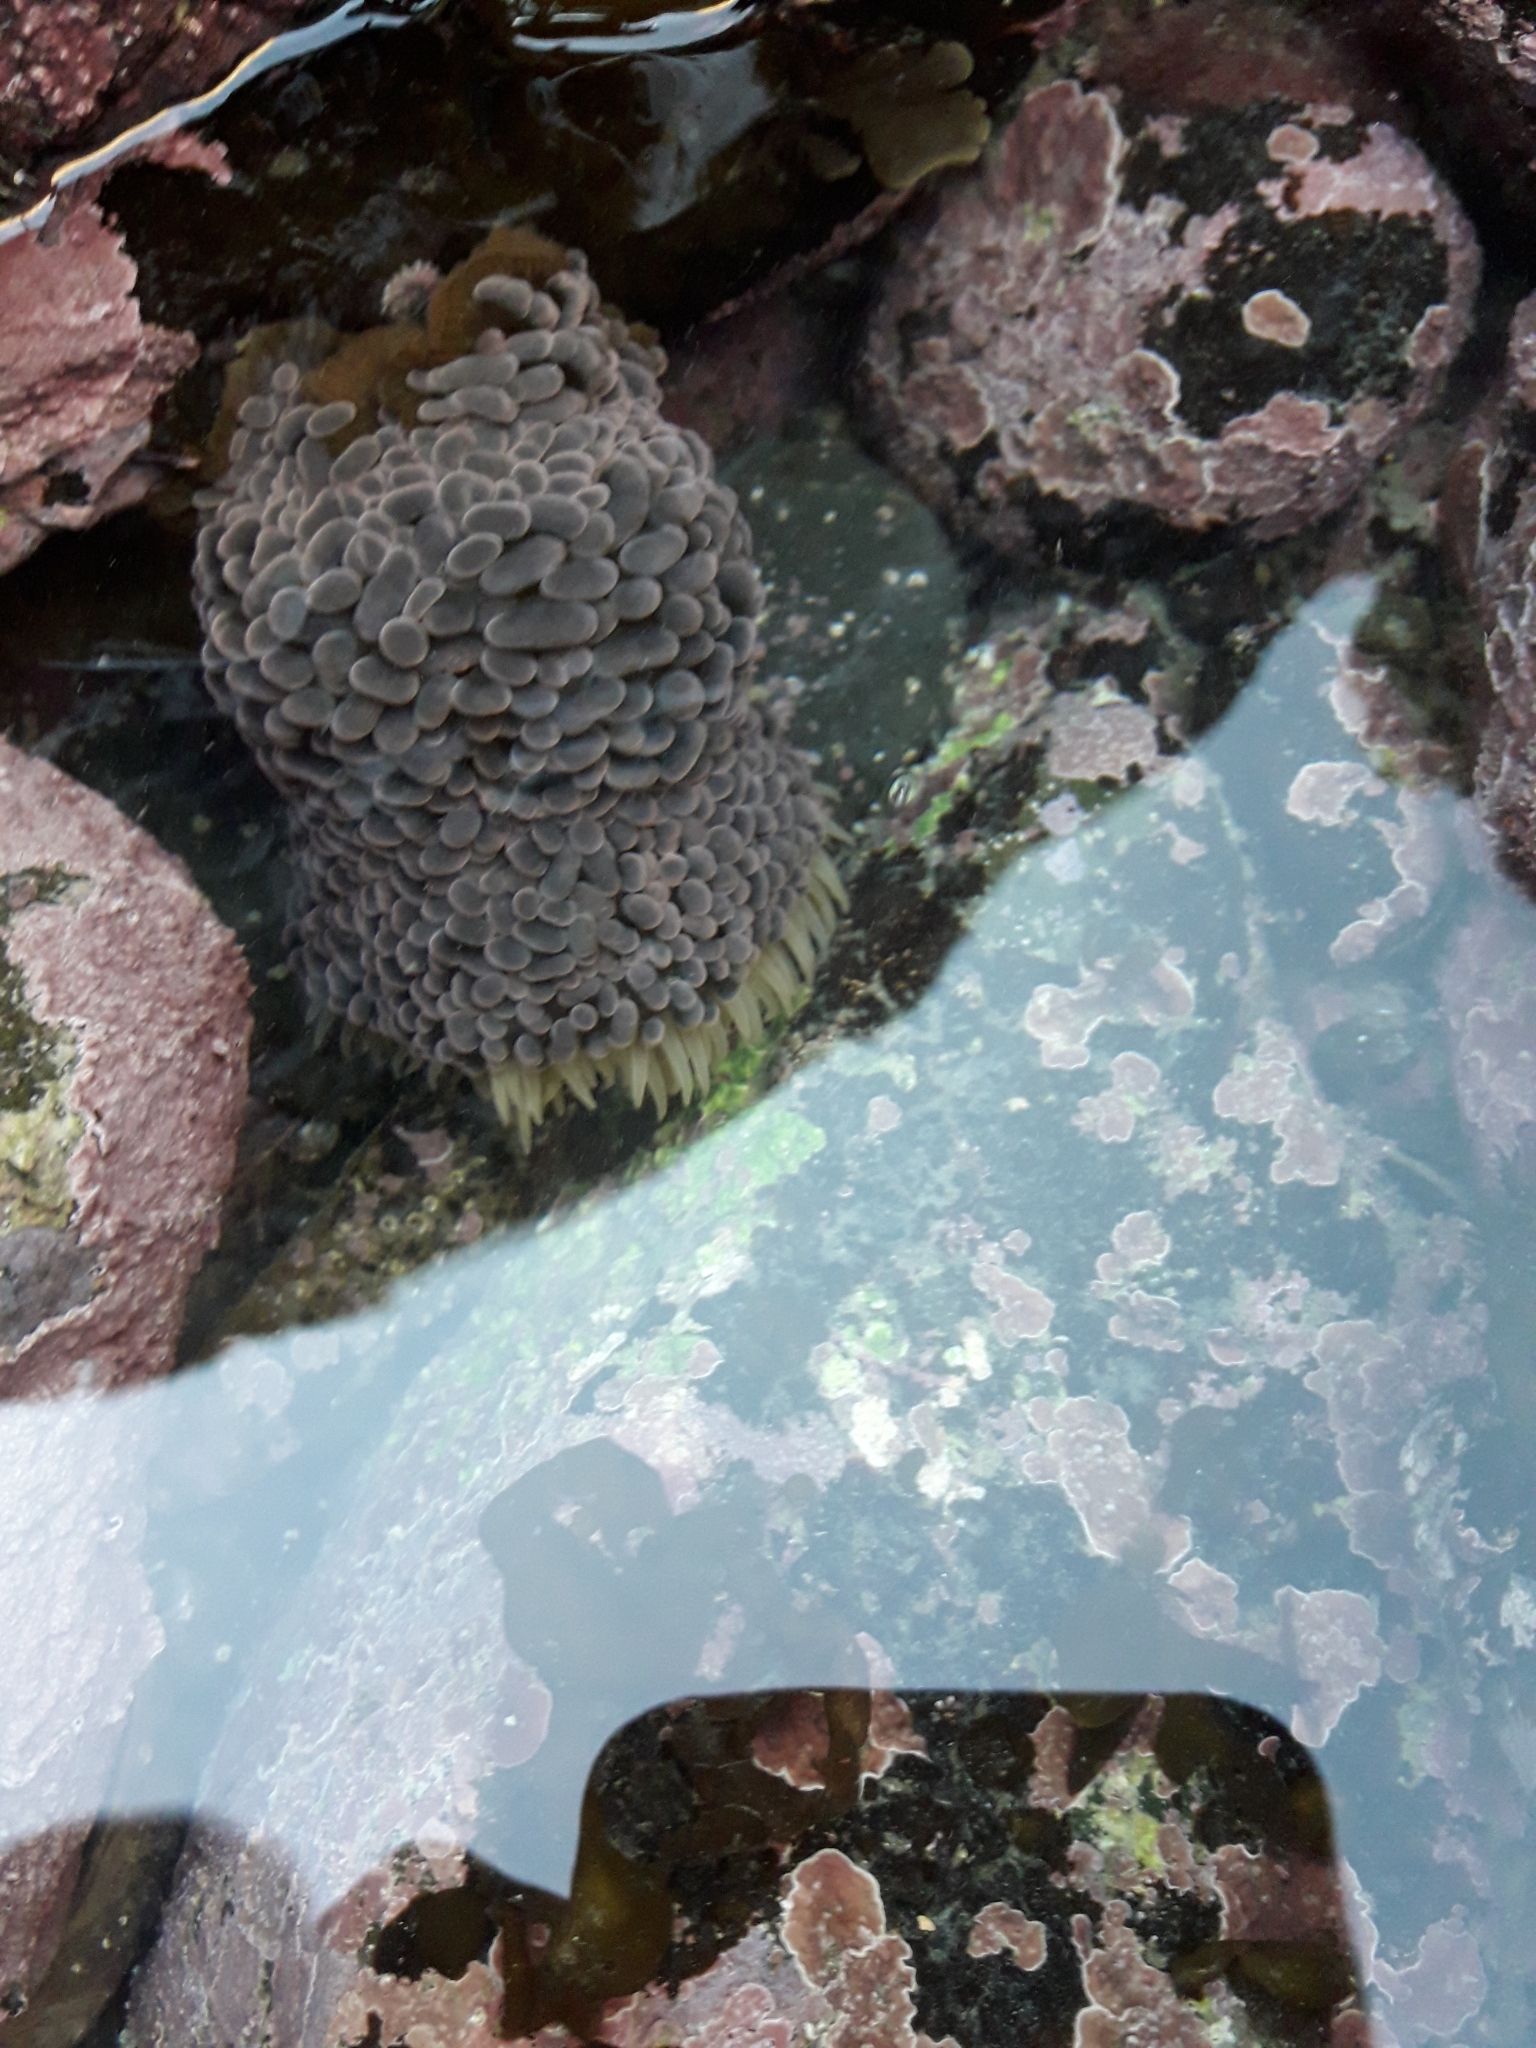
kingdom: Animalia
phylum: Cnidaria
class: Anthozoa
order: Actiniaria
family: Actiniidae
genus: Phlyctenactis
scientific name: Phlyctenactis tuberculosa
